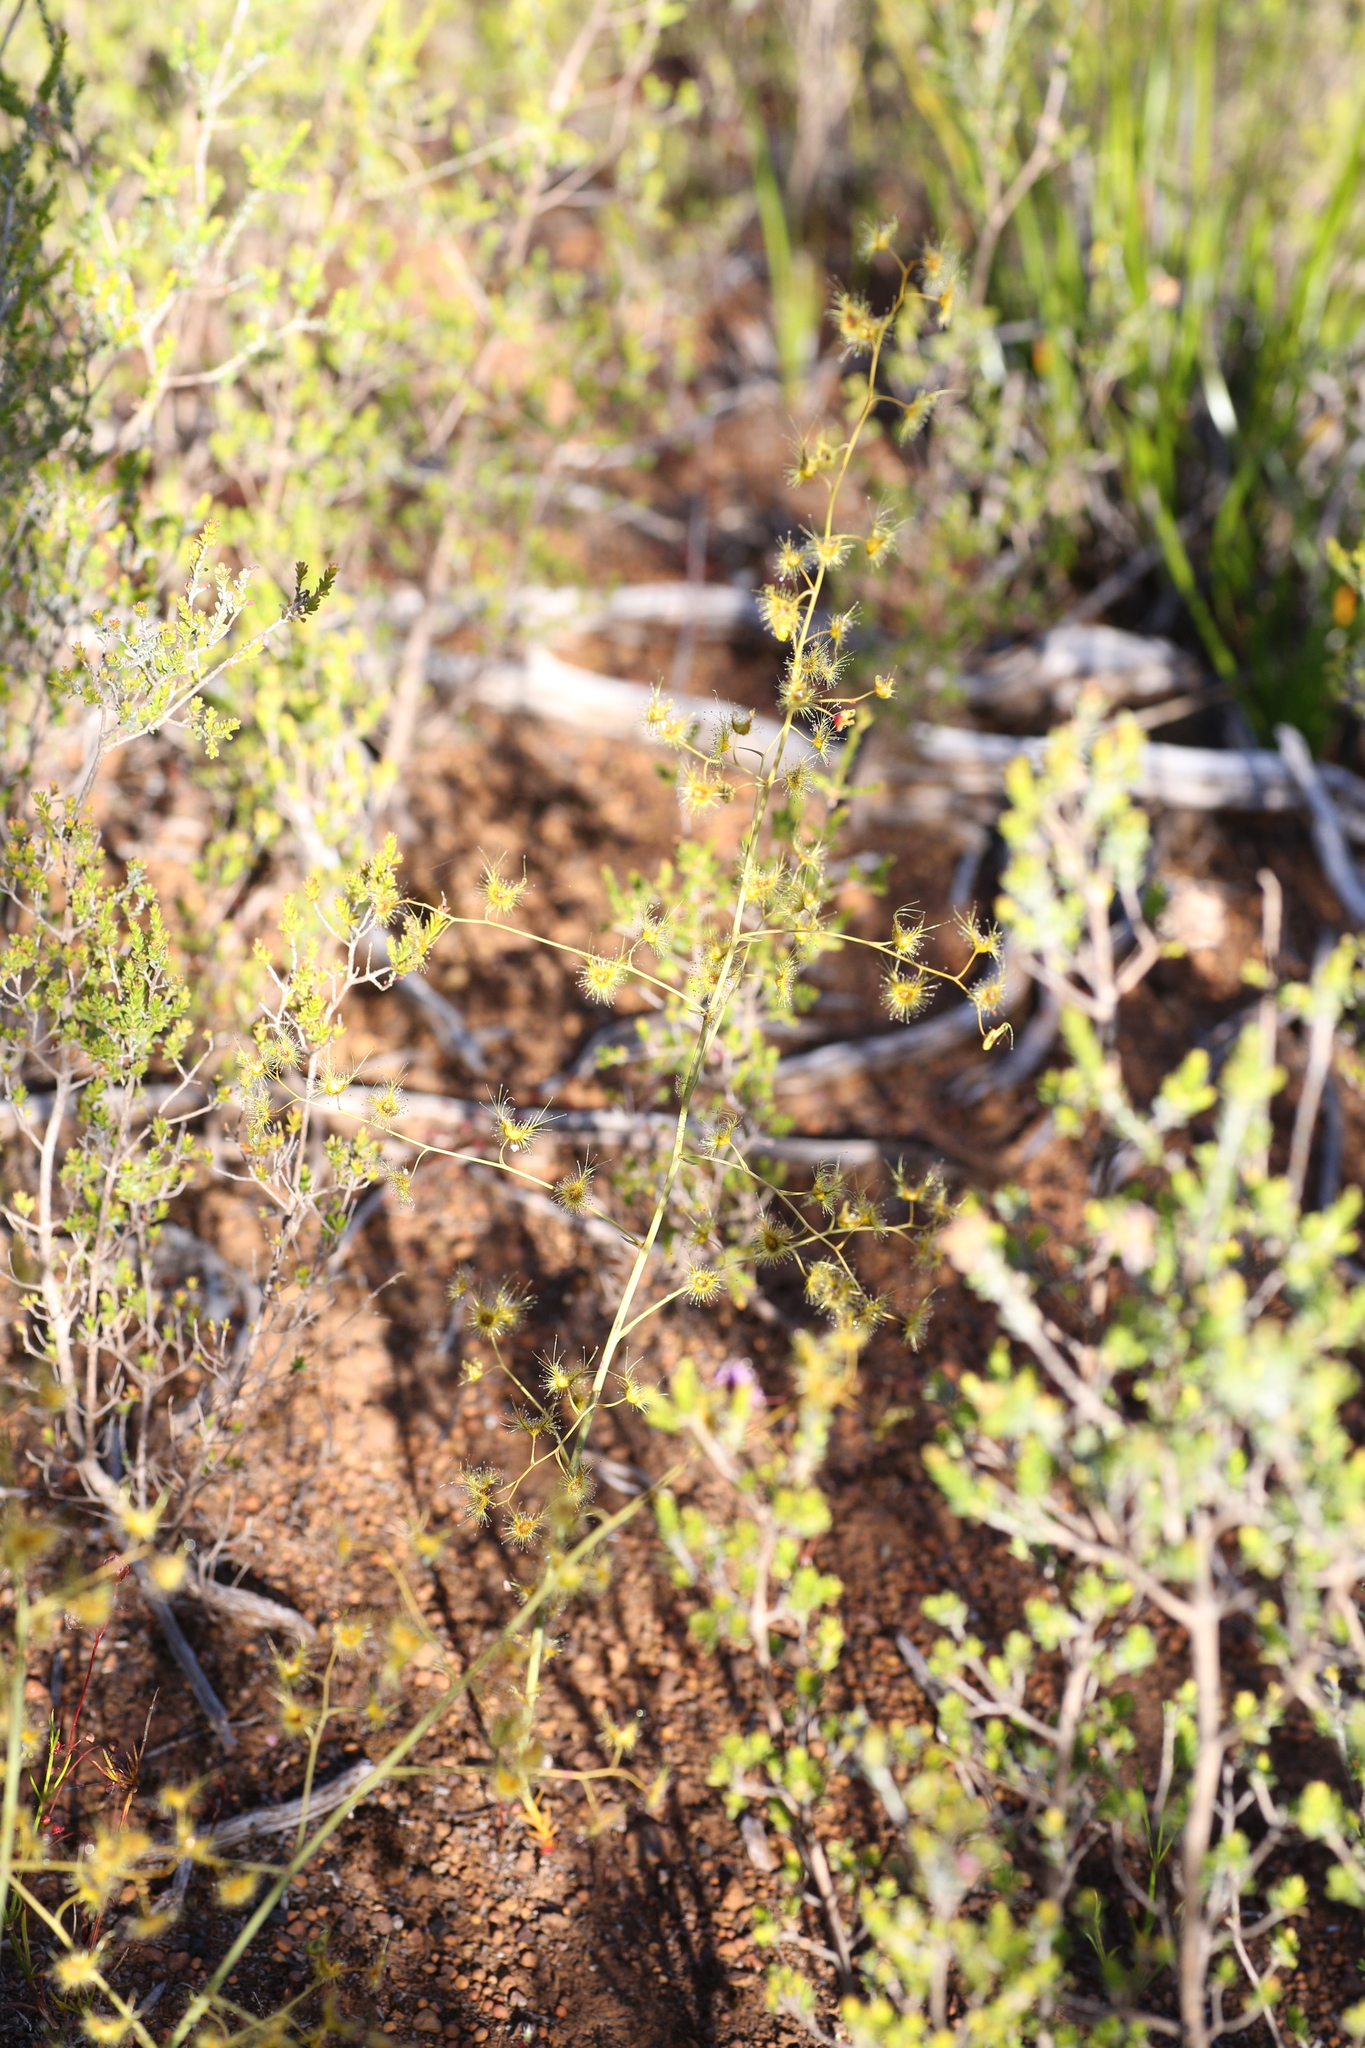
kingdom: Plantae
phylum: Tracheophyta
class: Magnoliopsida
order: Caryophyllales
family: Droseraceae
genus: Drosera
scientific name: Drosera gigantea
